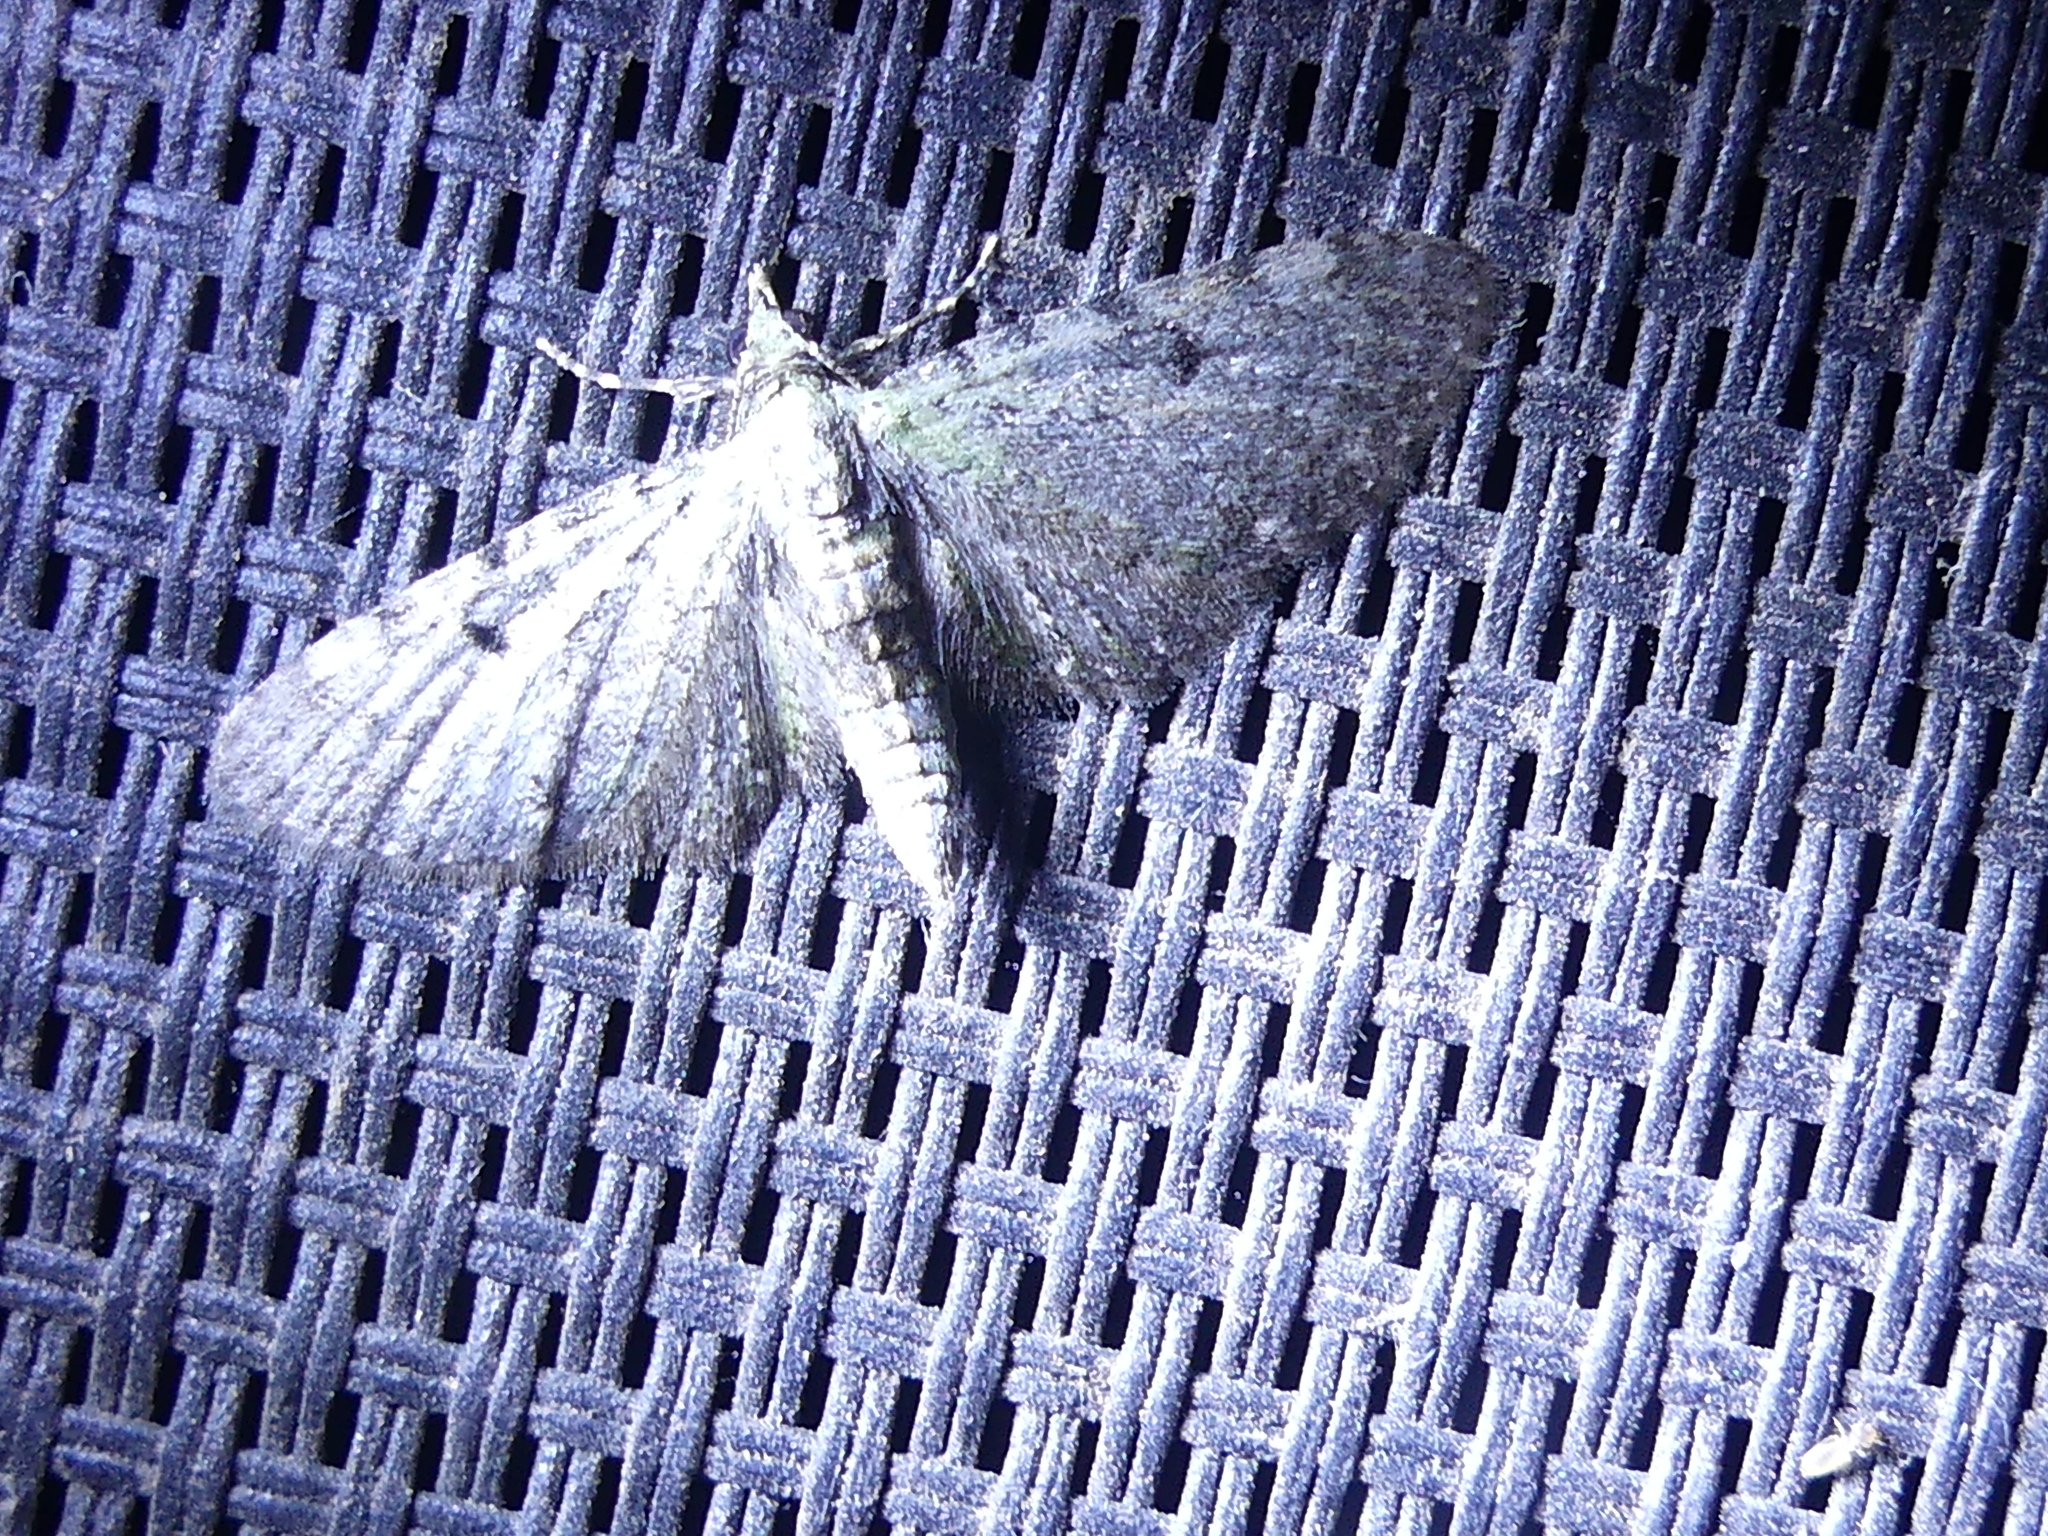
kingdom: Animalia
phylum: Arthropoda
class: Insecta
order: Lepidoptera
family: Geometridae
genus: Eupithecia
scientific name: Eupithecia miserulata
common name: Common eupithecia
